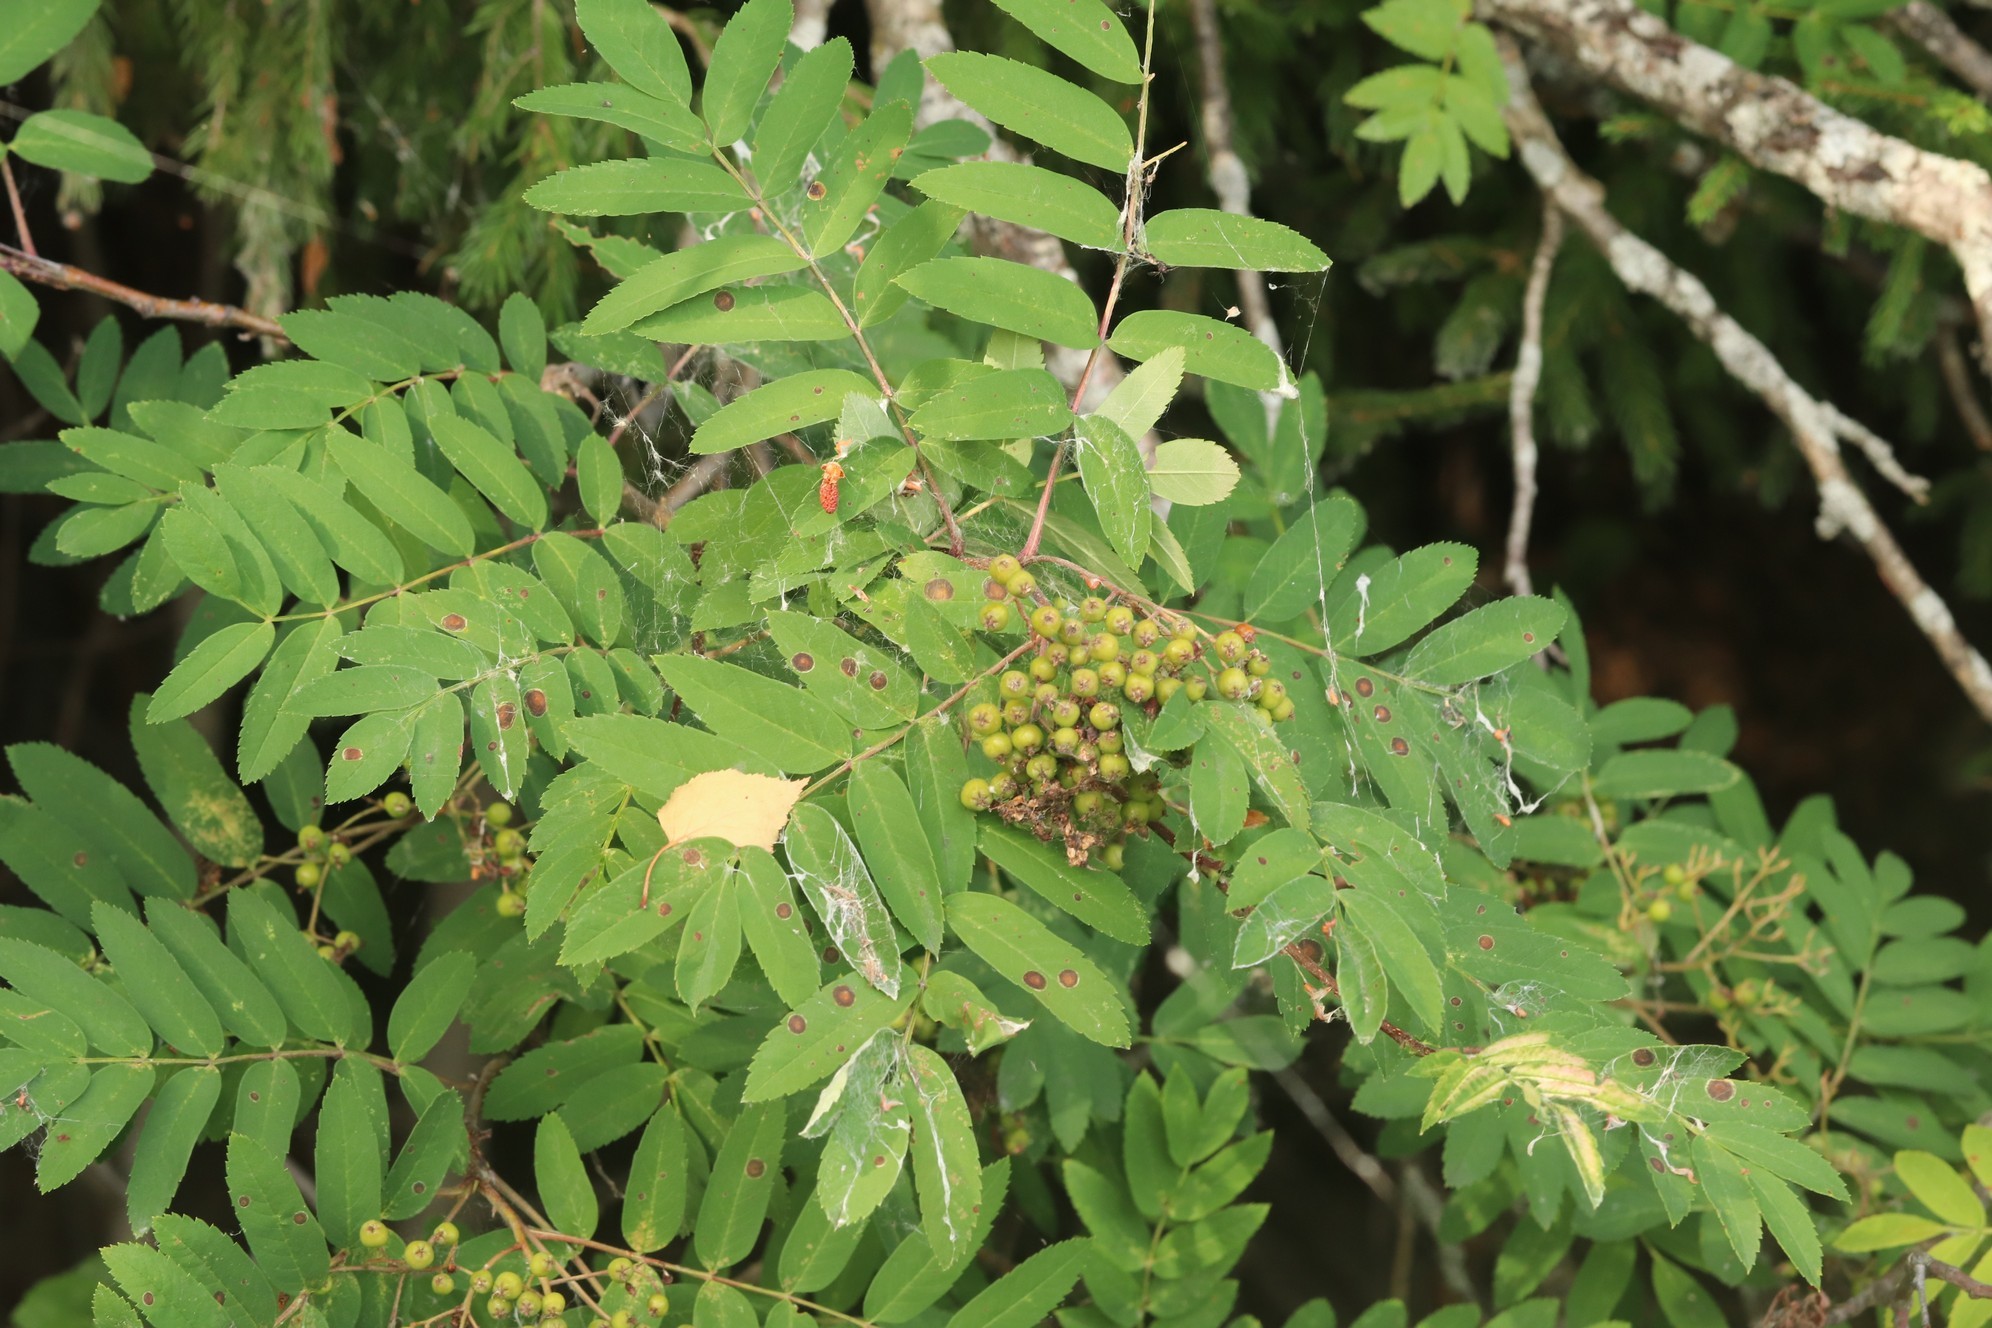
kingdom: Plantae
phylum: Tracheophyta
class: Magnoliopsida
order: Rosales
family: Rosaceae
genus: Sorbus
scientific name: Sorbus aucuparia
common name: Rowan
